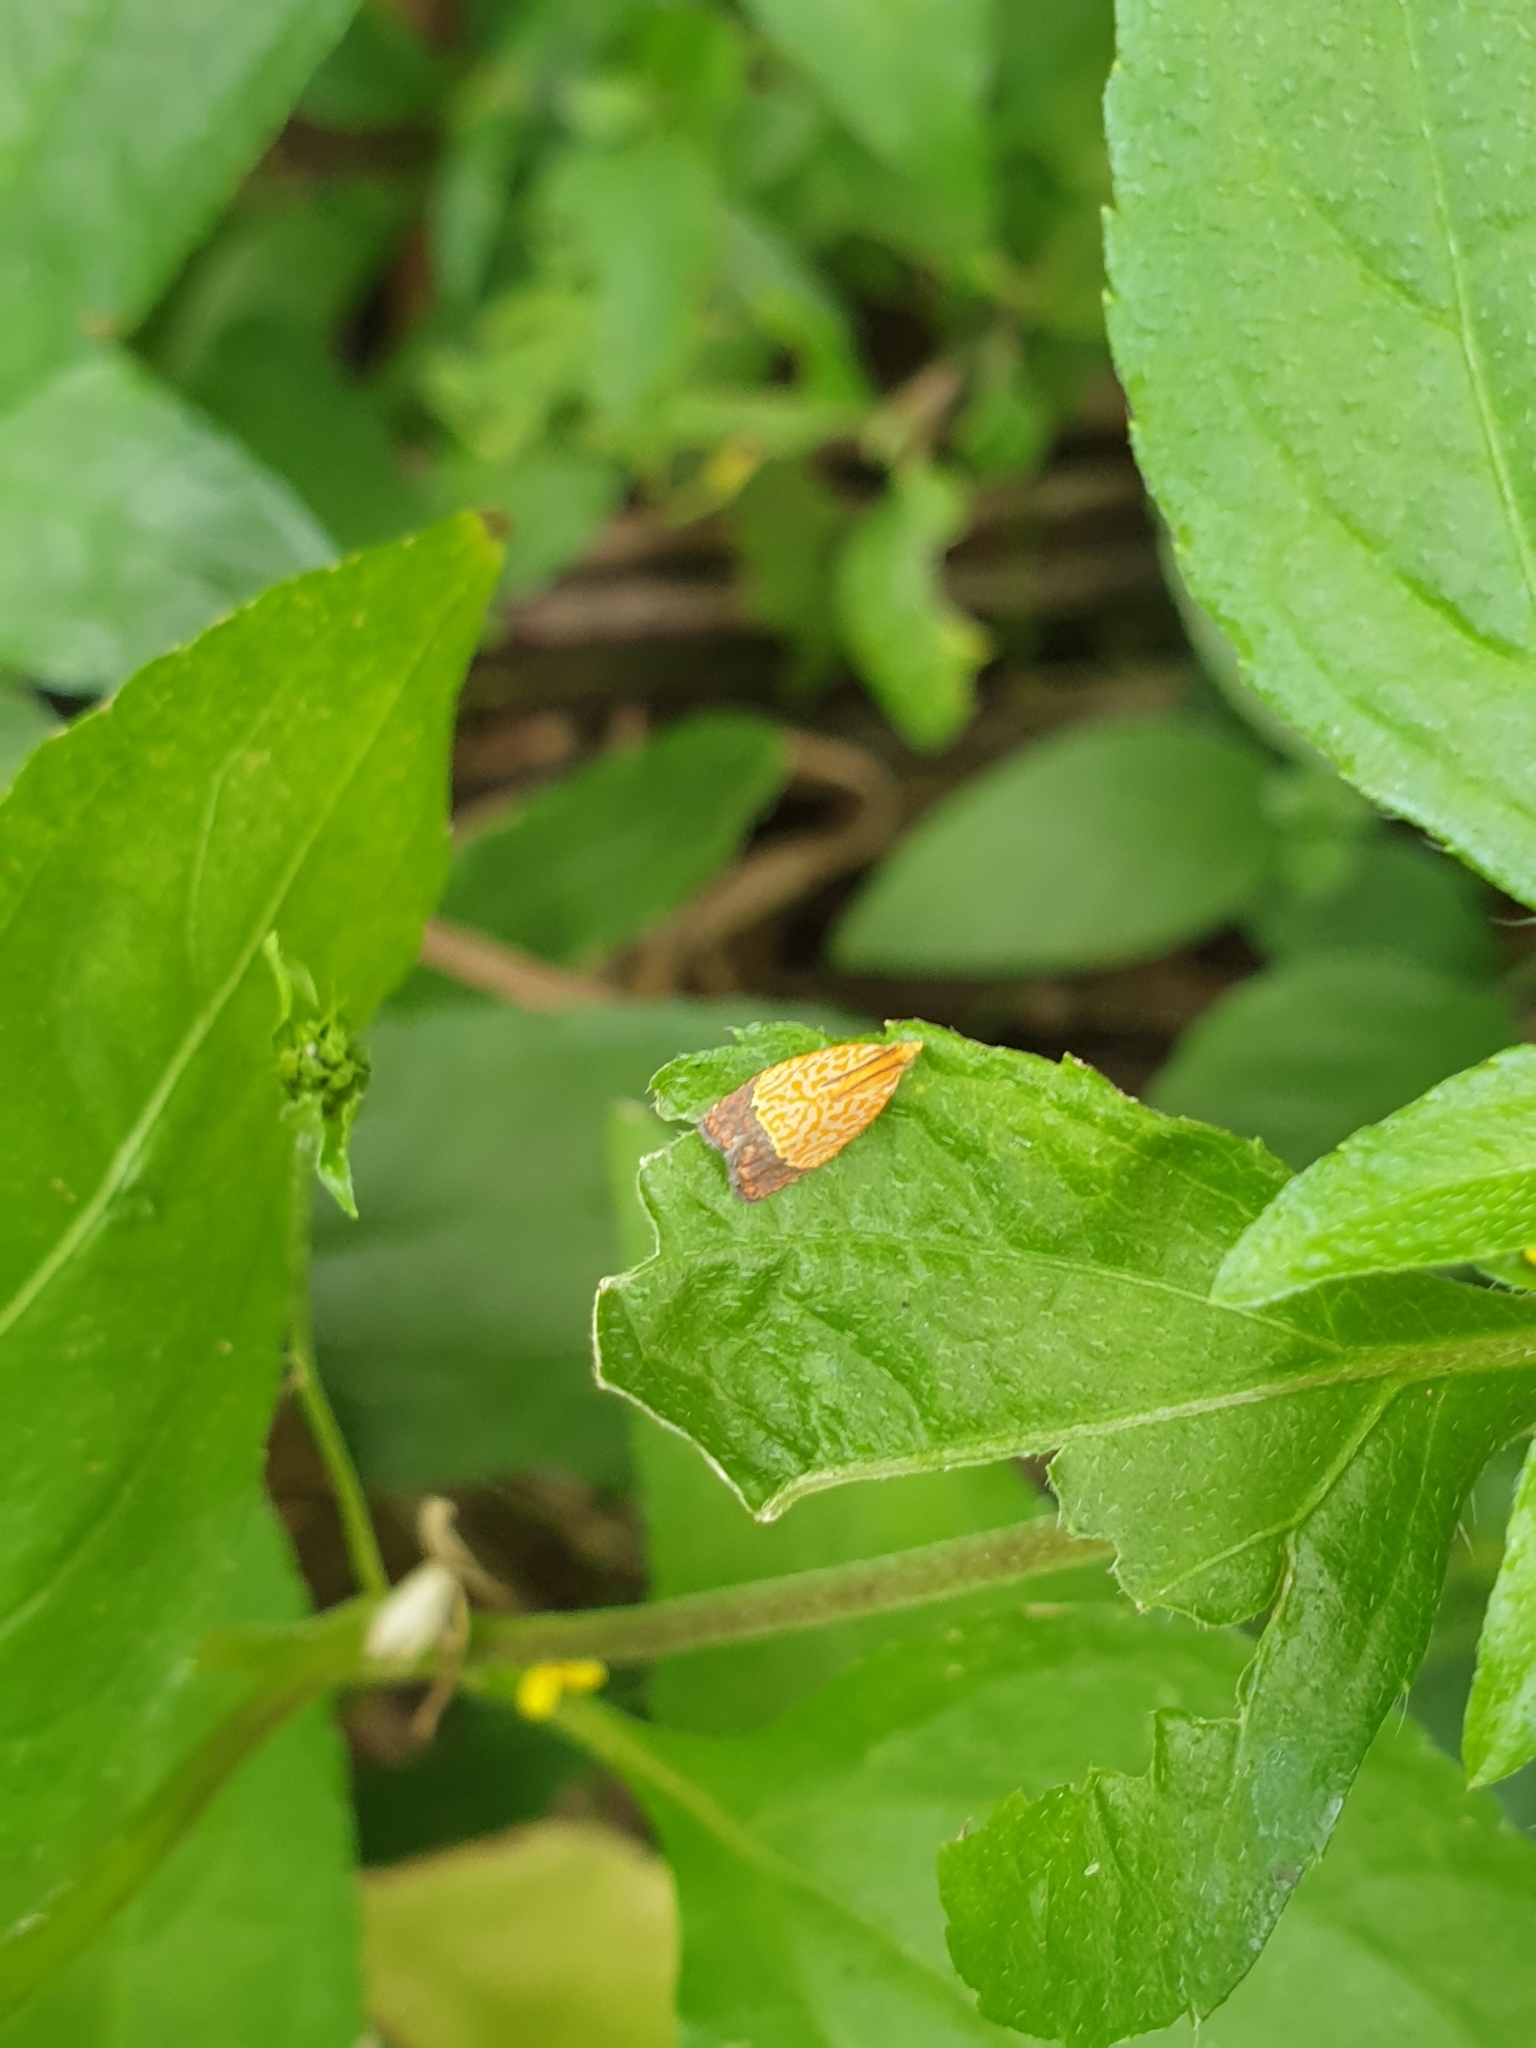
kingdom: Animalia
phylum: Arthropoda
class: Insecta
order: Lepidoptera
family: Tortricidae
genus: Loboschiza
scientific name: Loboschiza koenigiana
